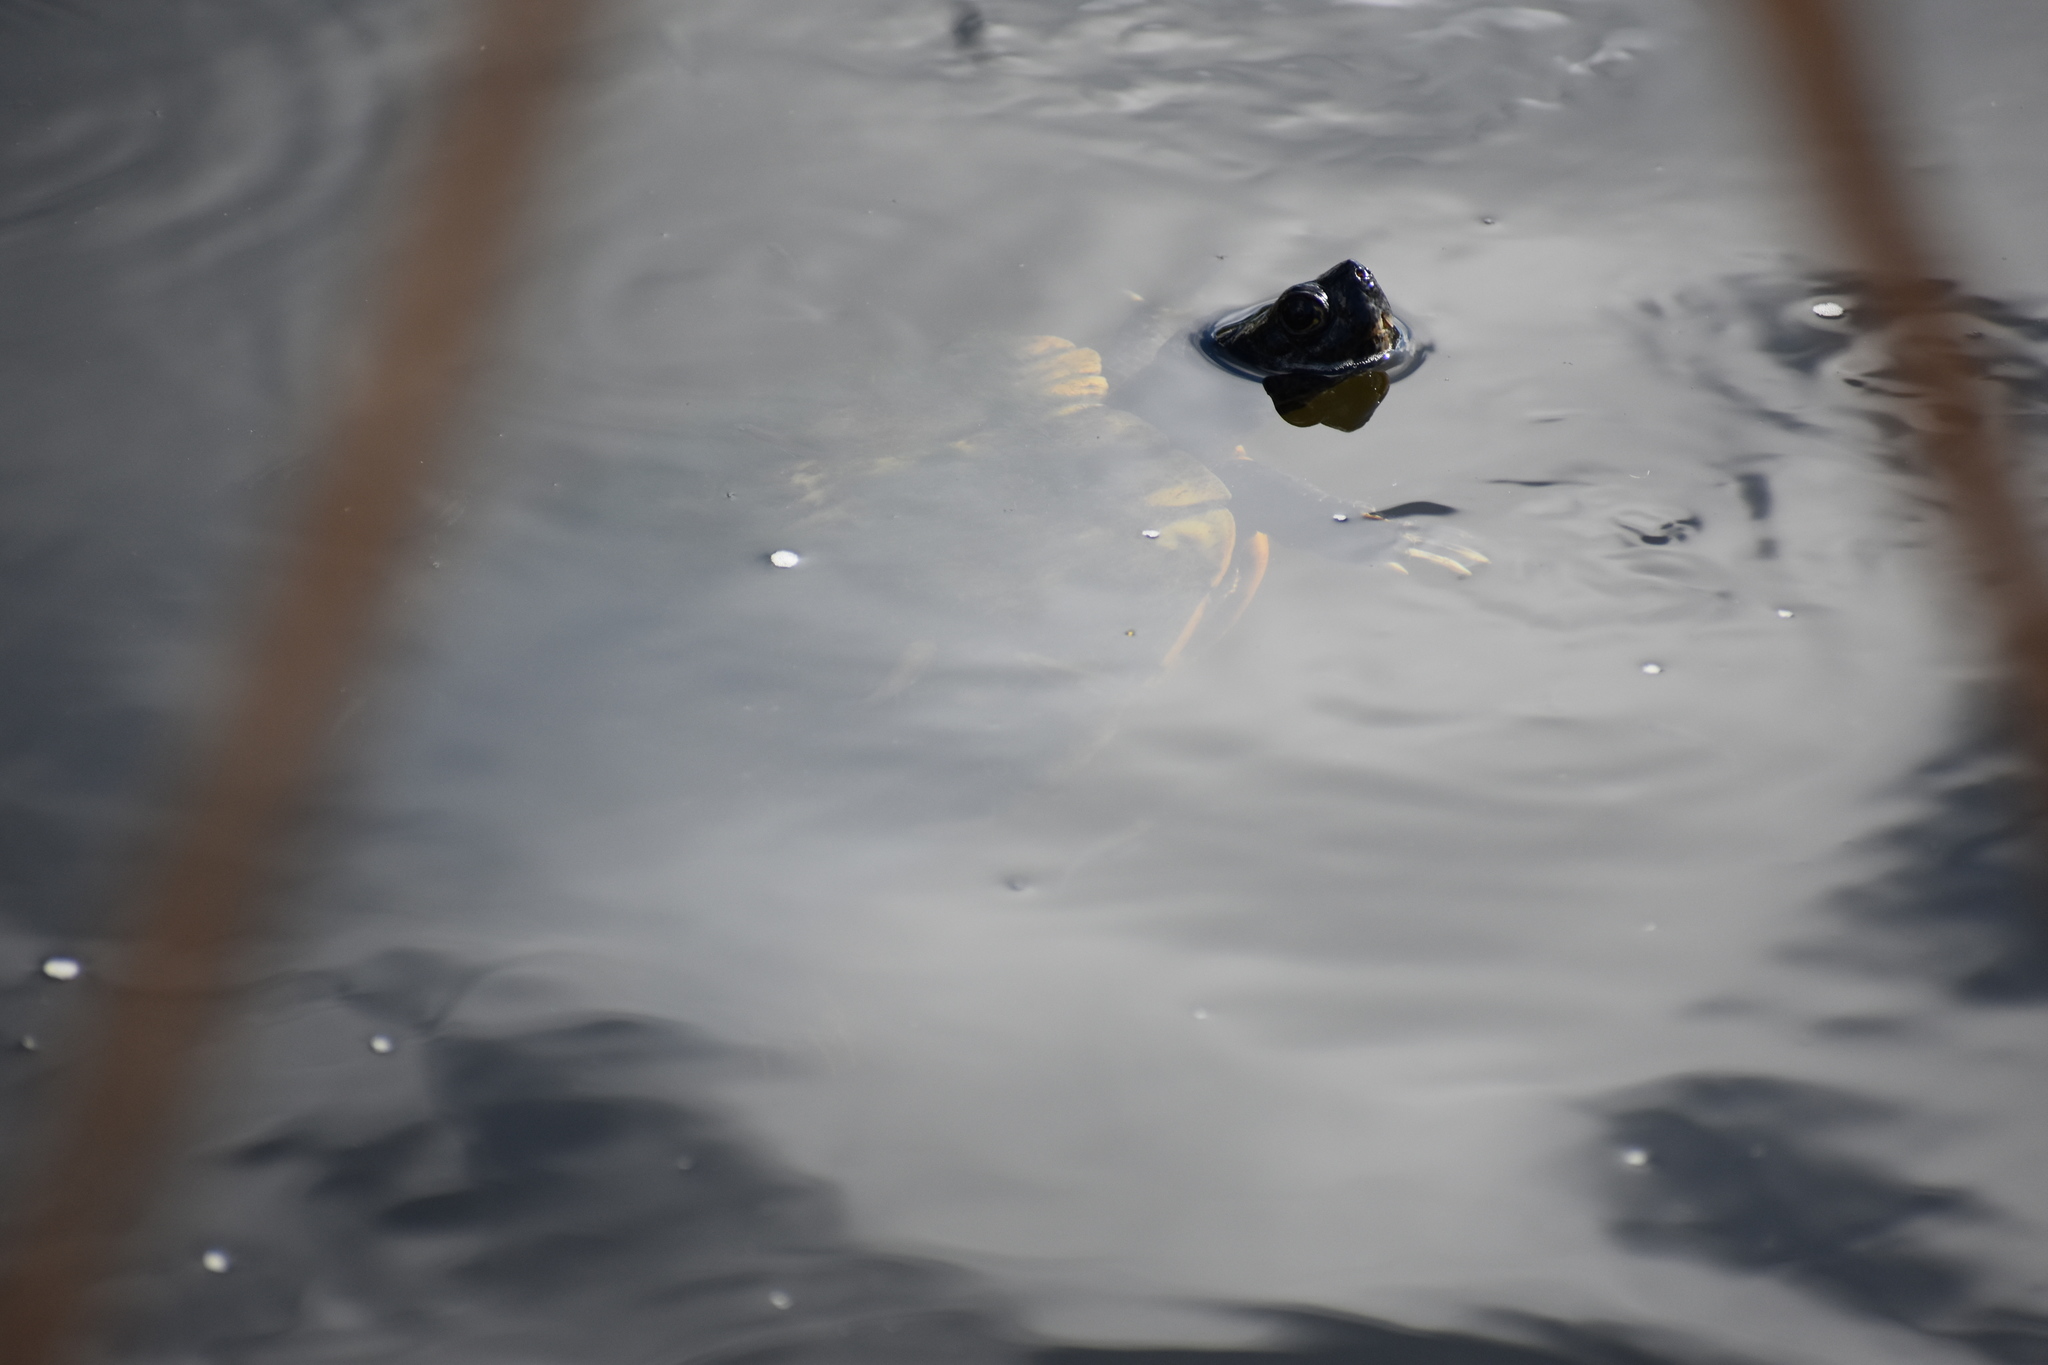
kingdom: Animalia
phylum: Chordata
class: Testudines
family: Emydidae
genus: Trachemys
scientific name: Trachemys scripta
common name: Slider
